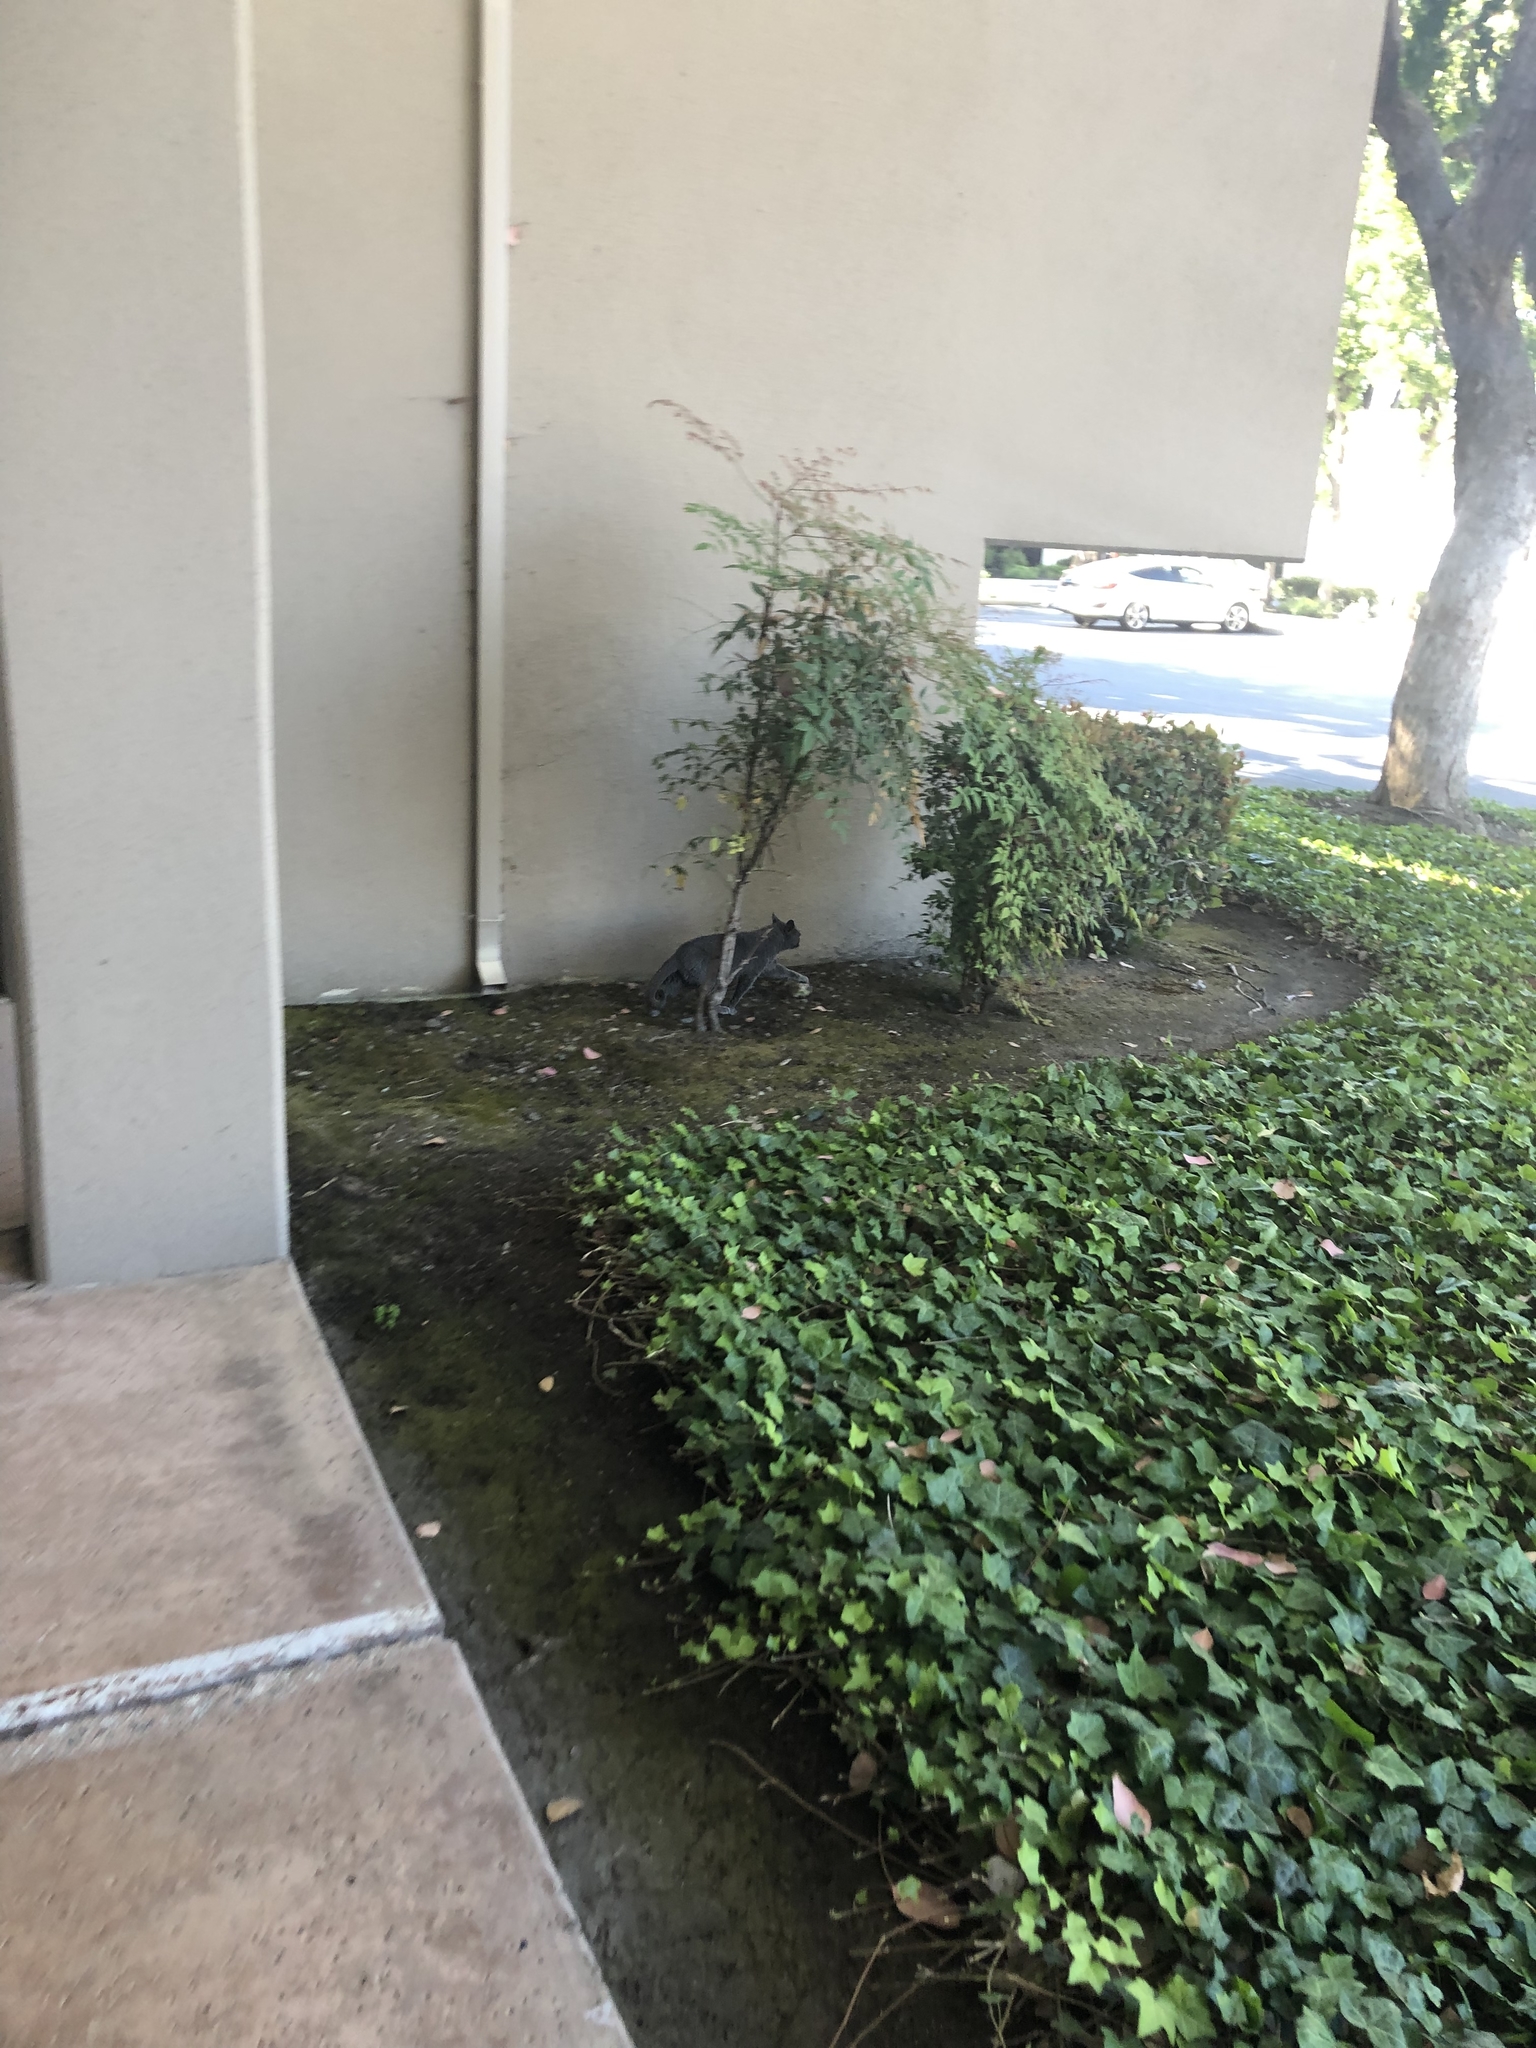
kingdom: Animalia
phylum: Chordata
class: Mammalia
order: Carnivora
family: Felidae
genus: Felis
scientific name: Felis catus
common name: Domestic cat
